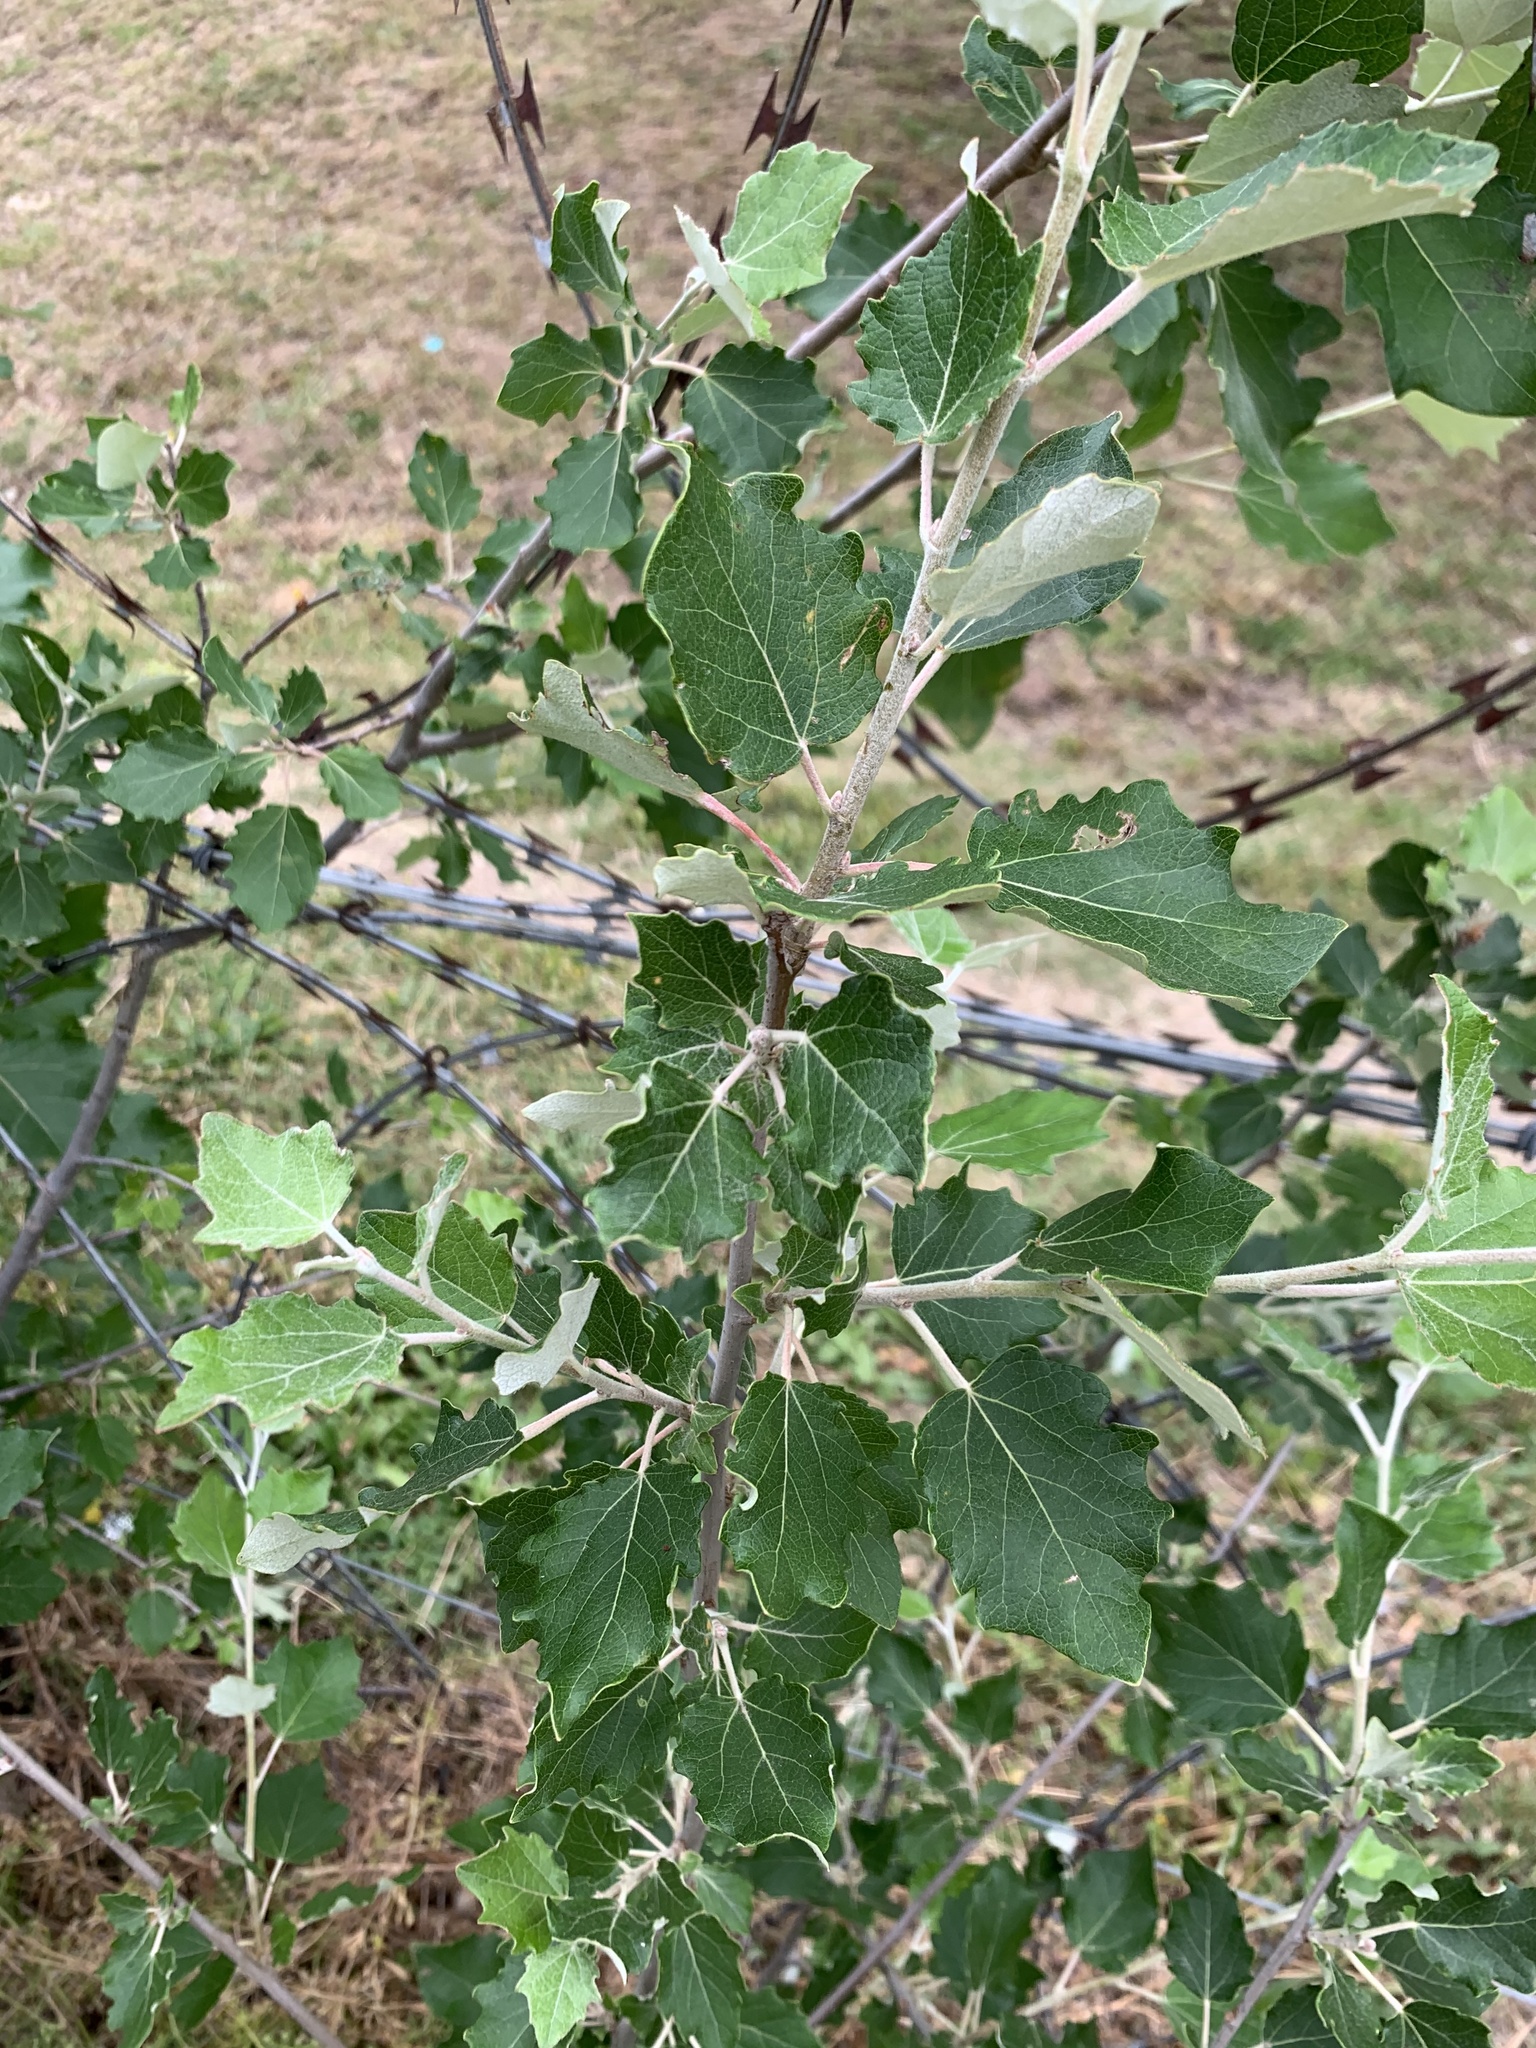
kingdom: Plantae
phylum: Tracheophyta
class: Magnoliopsida
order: Malpighiales
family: Salicaceae
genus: Populus
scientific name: Populus canescens
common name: Gray poplar
